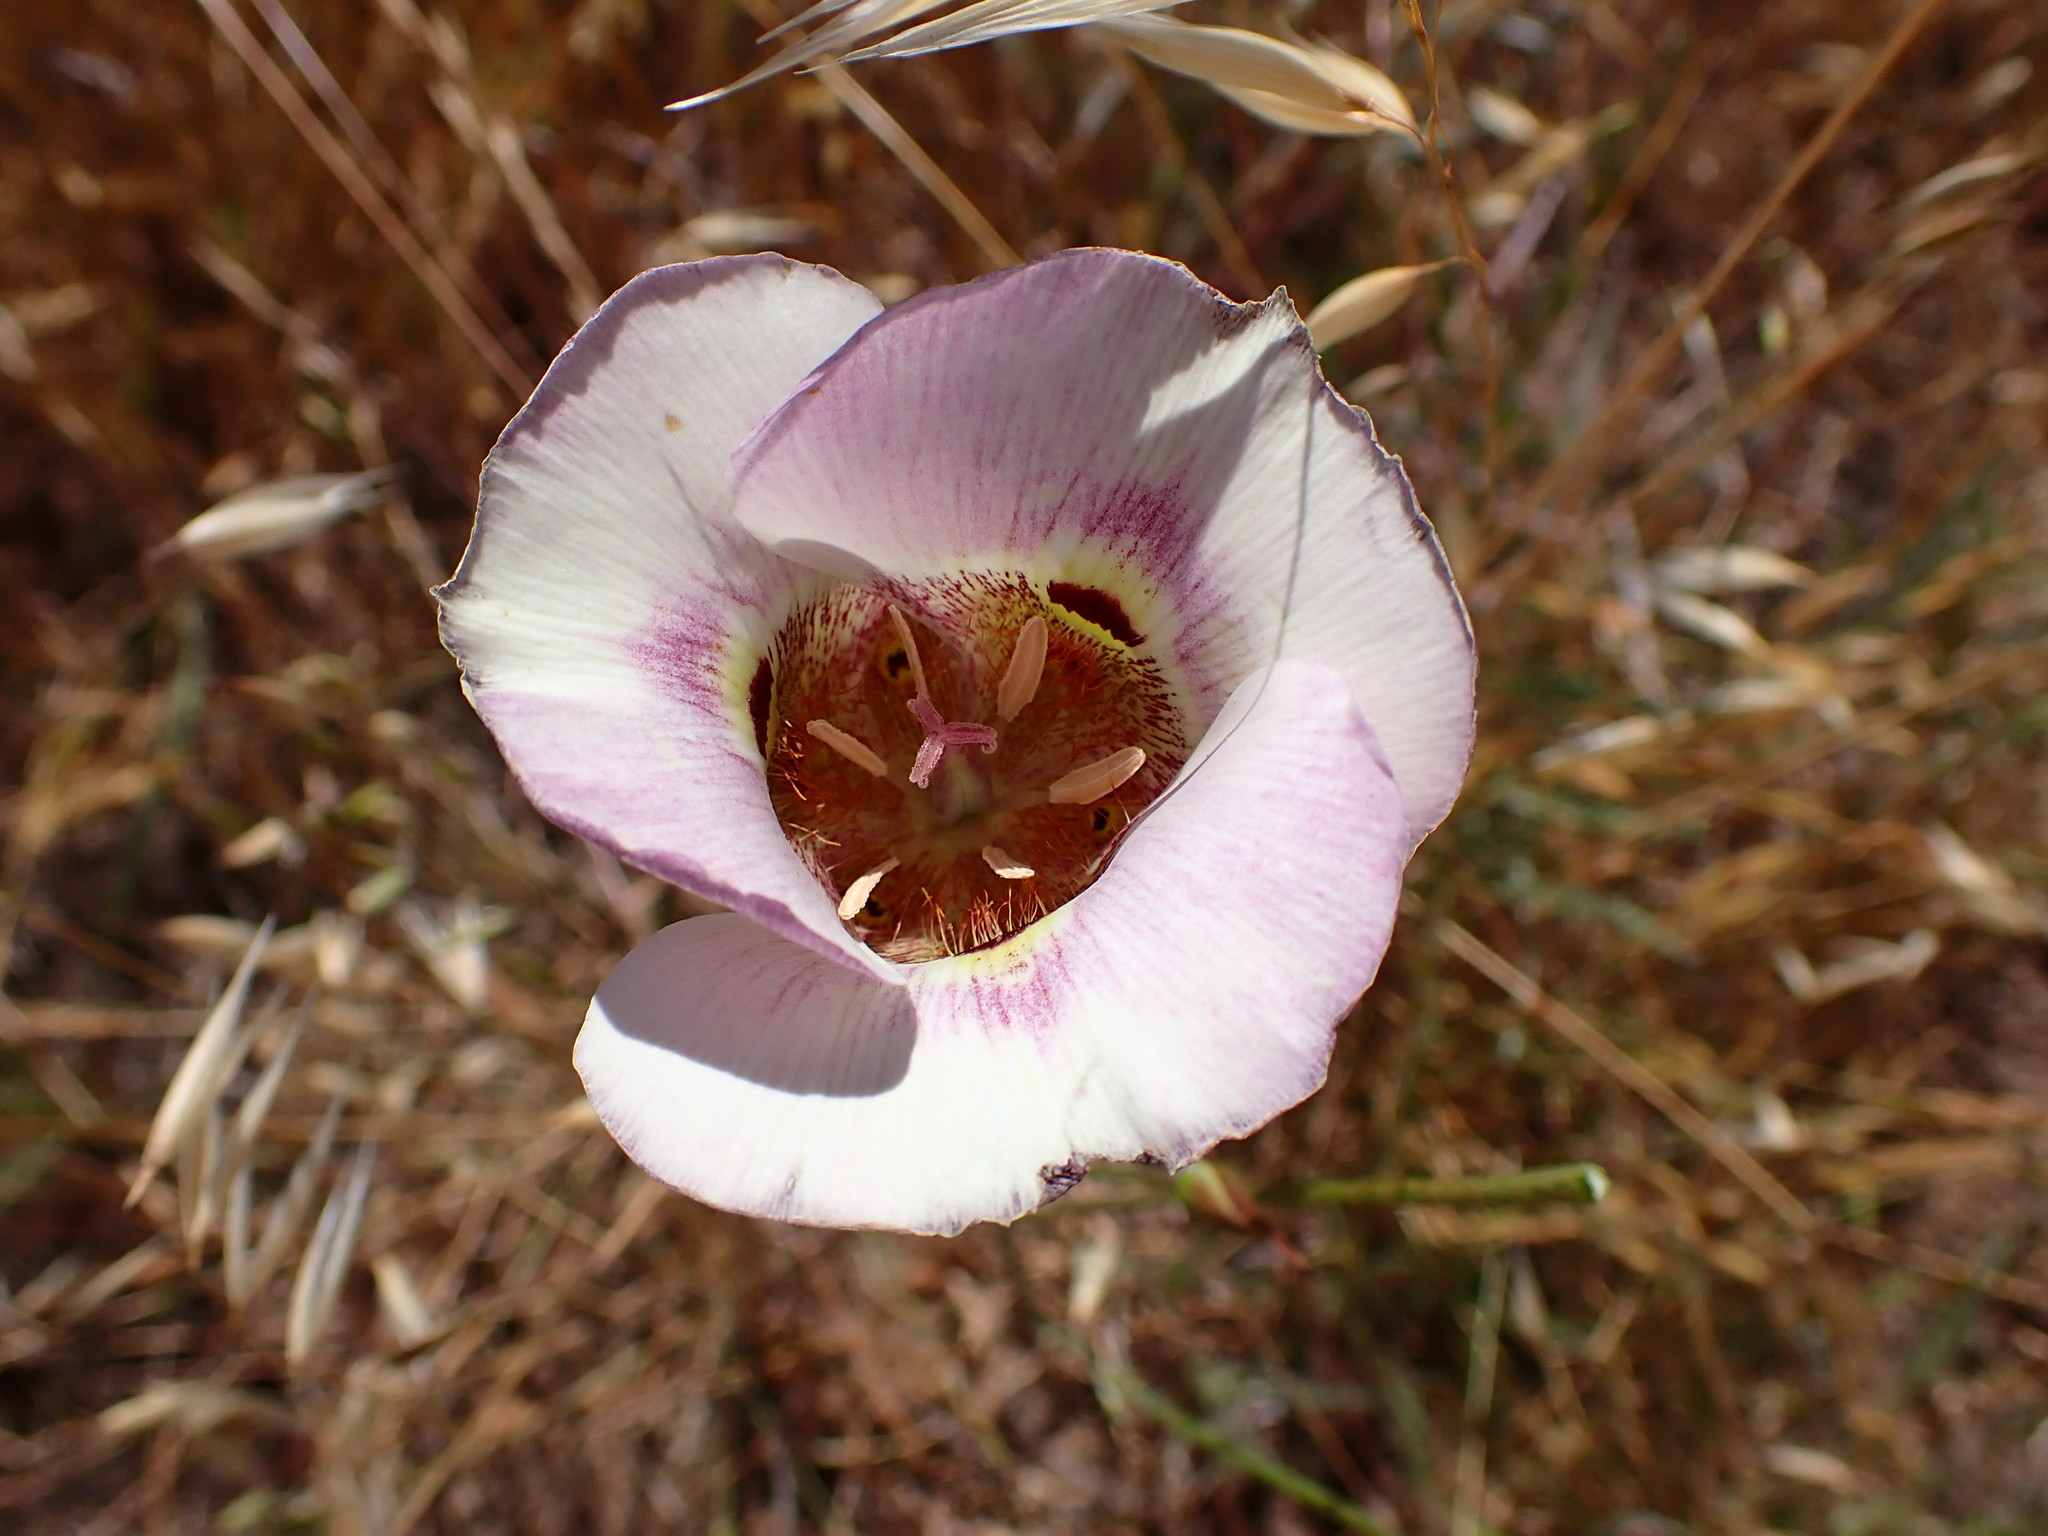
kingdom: Plantae
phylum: Tracheophyta
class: Liliopsida
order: Liliales
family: Liliaceae
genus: Calochortus
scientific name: Calochortus argillosus
